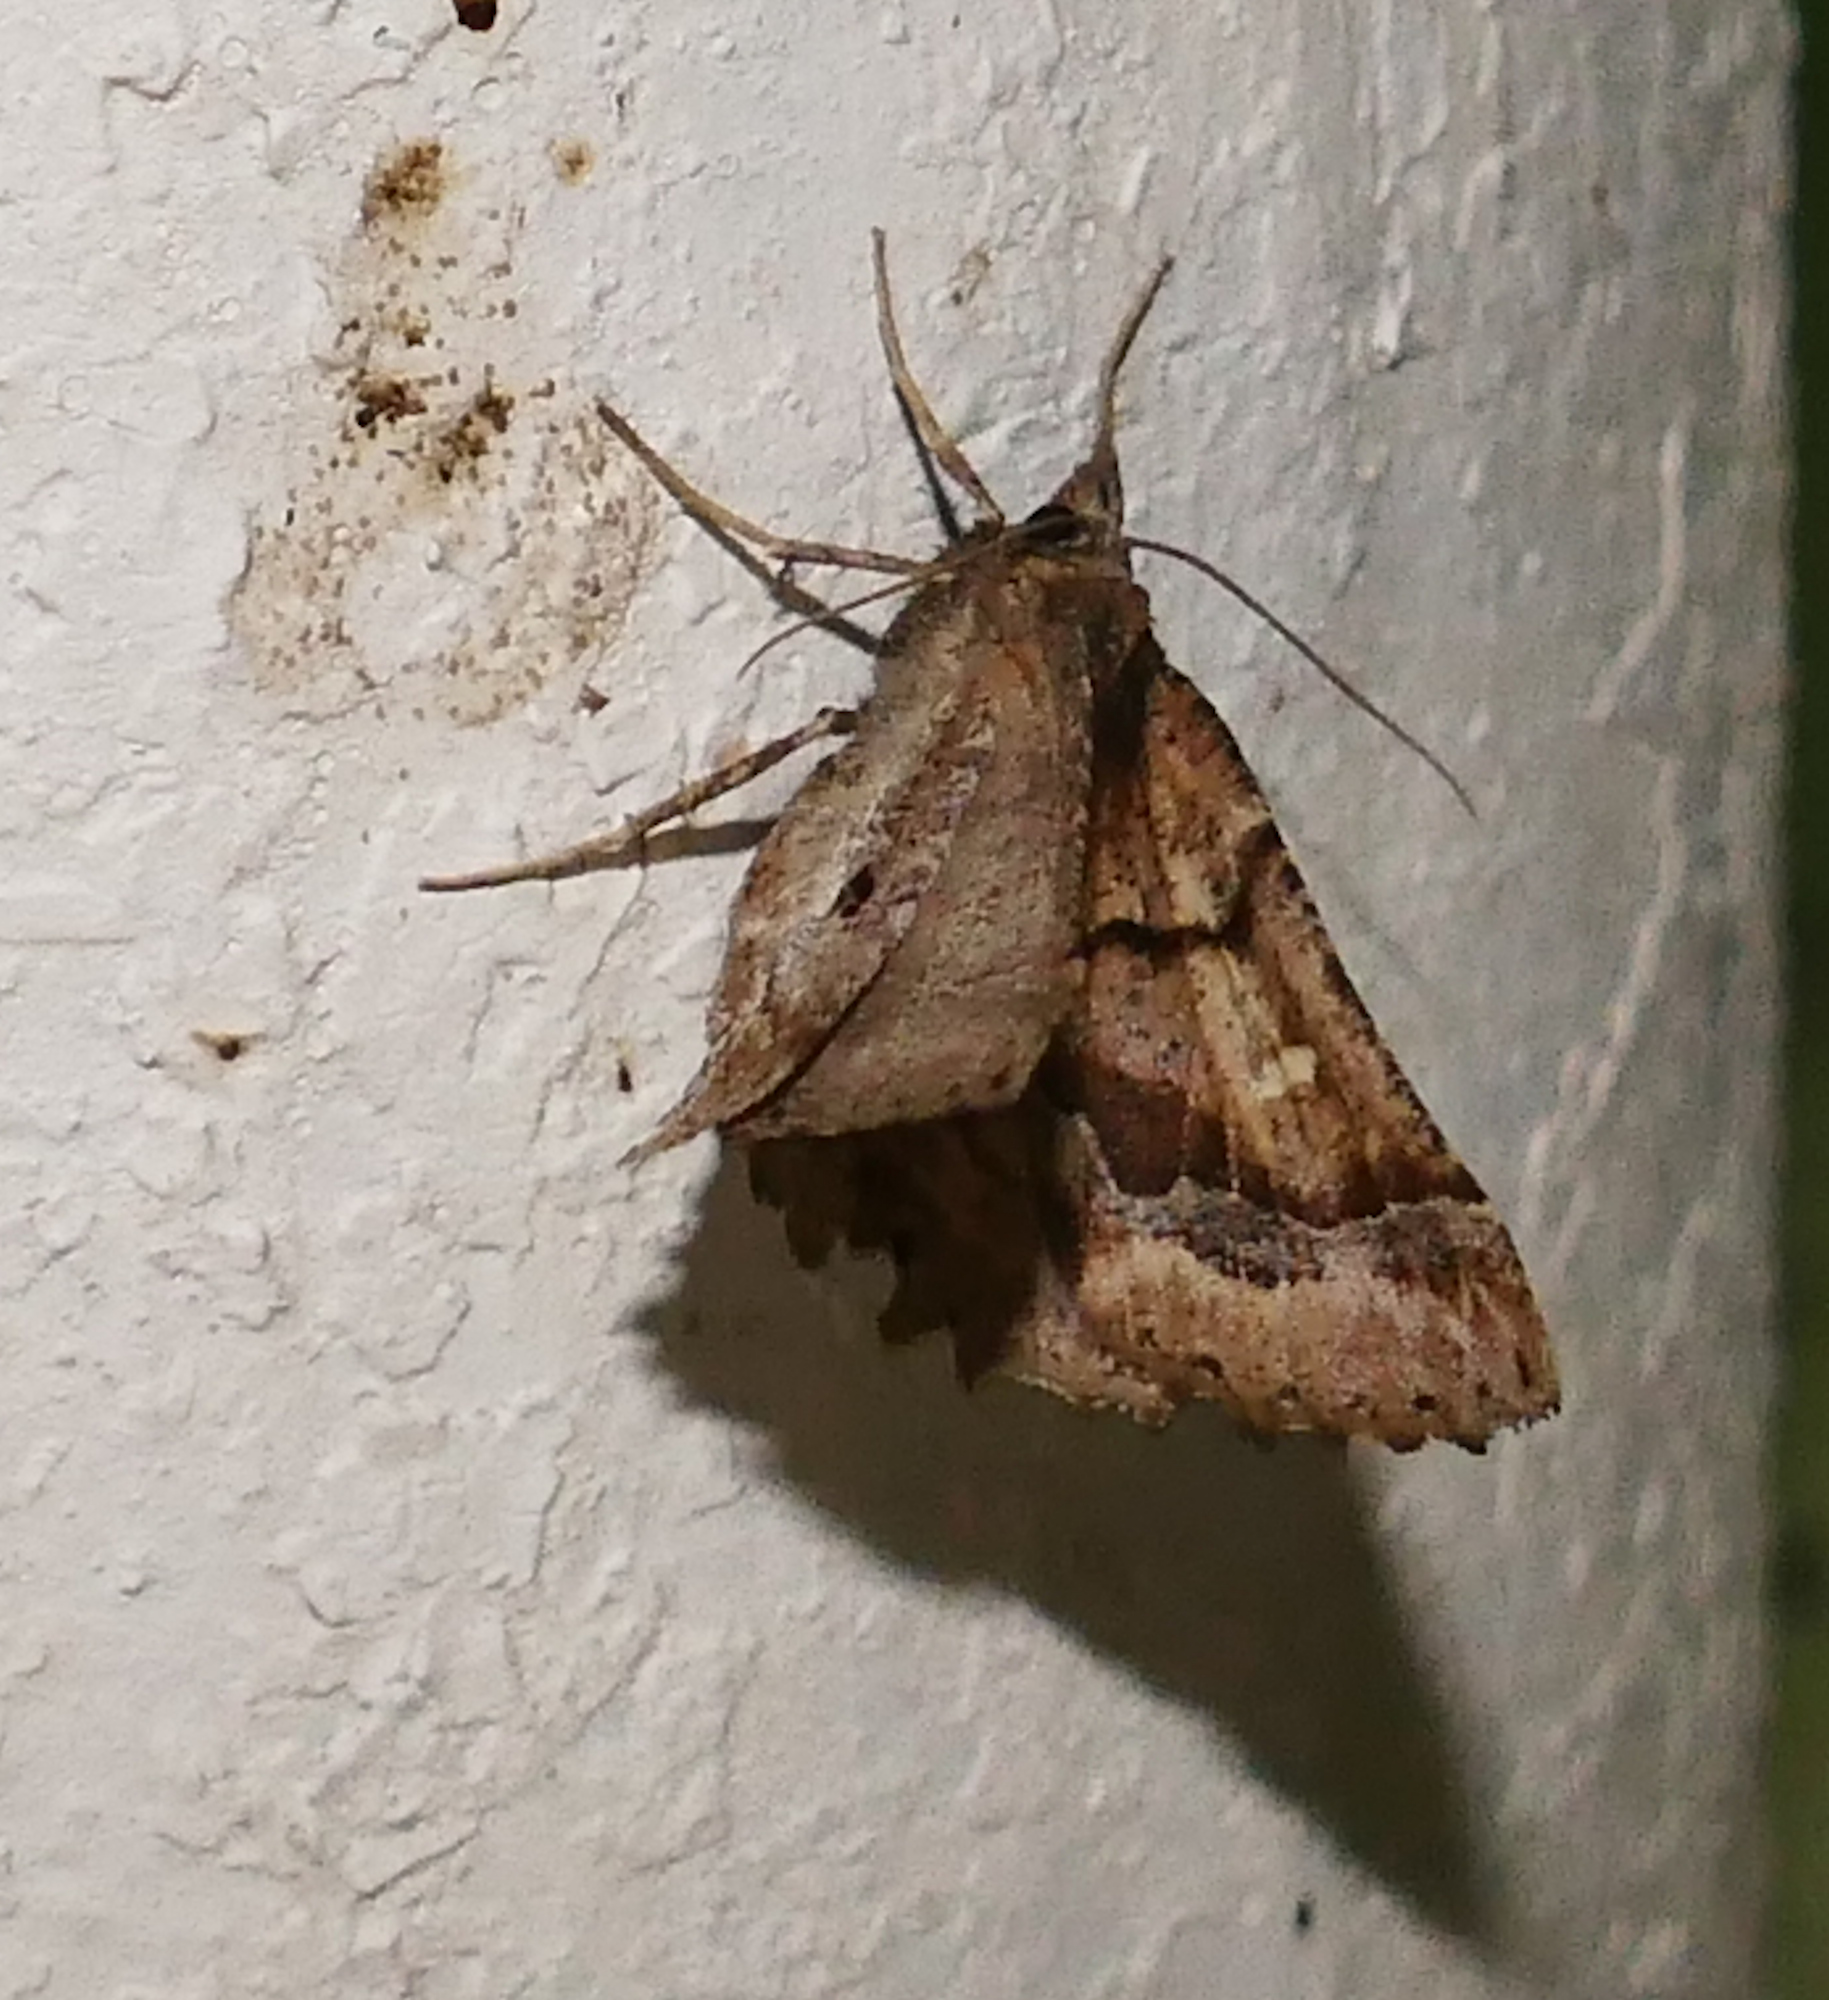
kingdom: Animalia
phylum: Arthropoda
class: Insecta
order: Lepidoptera
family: Geometridae
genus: Pero
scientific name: Pero meskaria
